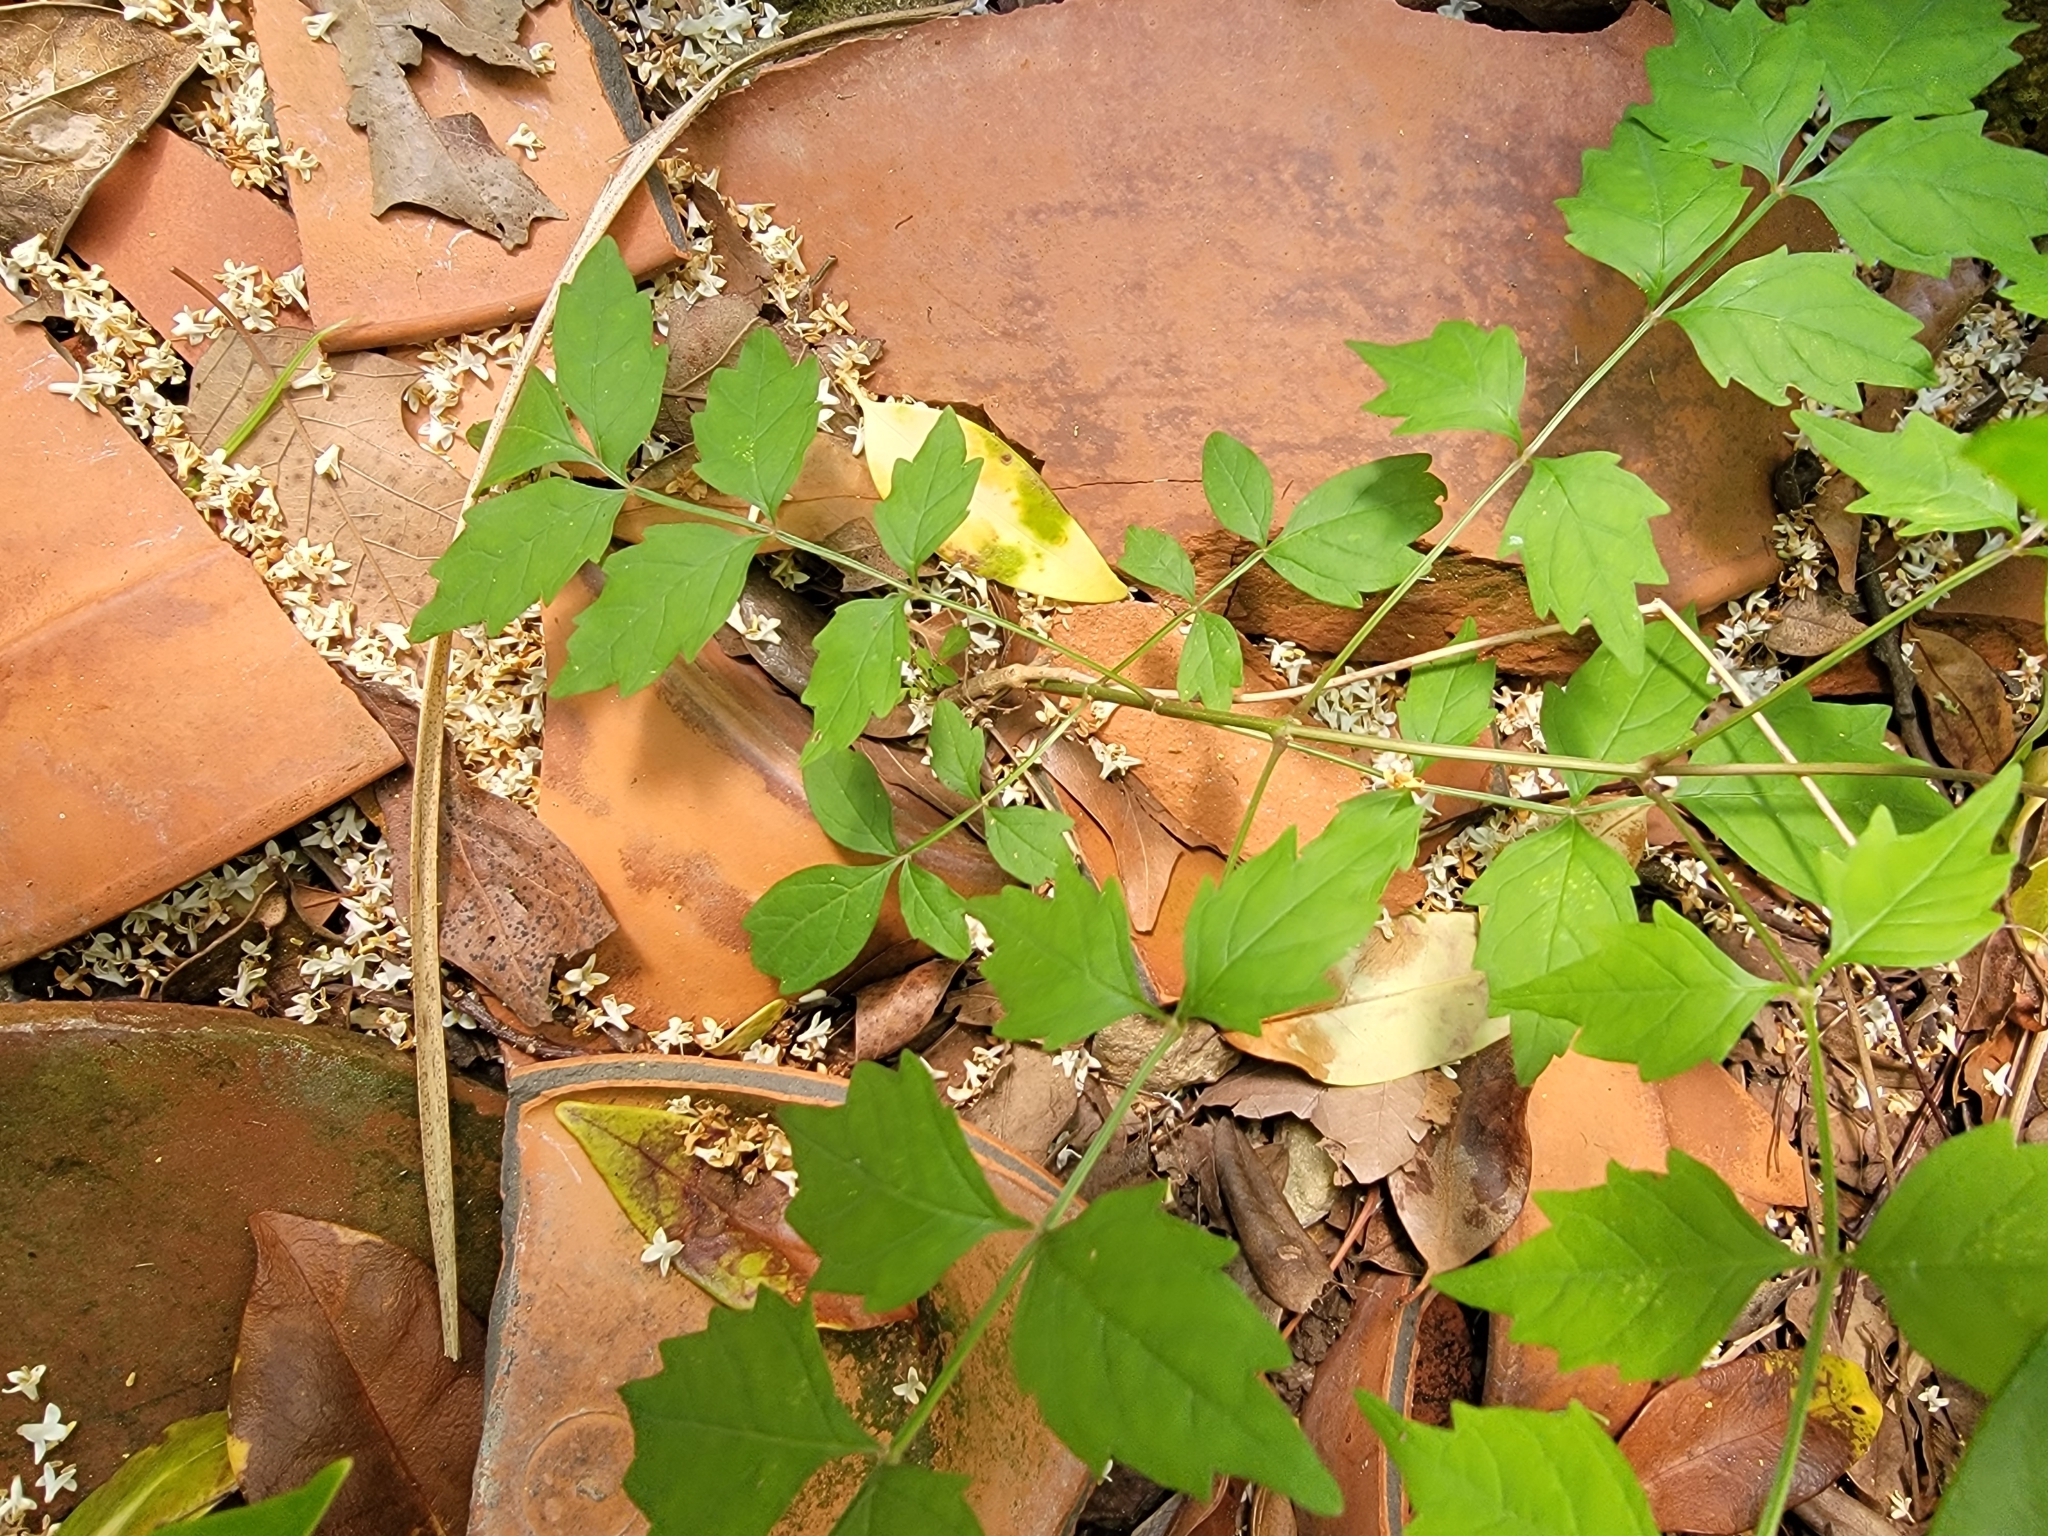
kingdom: Plantae
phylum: Tracheophyta
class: Magnoliopsida
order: Lamiales
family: Bignoniaceae
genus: Campsis
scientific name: Campsis radicans
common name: Trumpet-creeper
